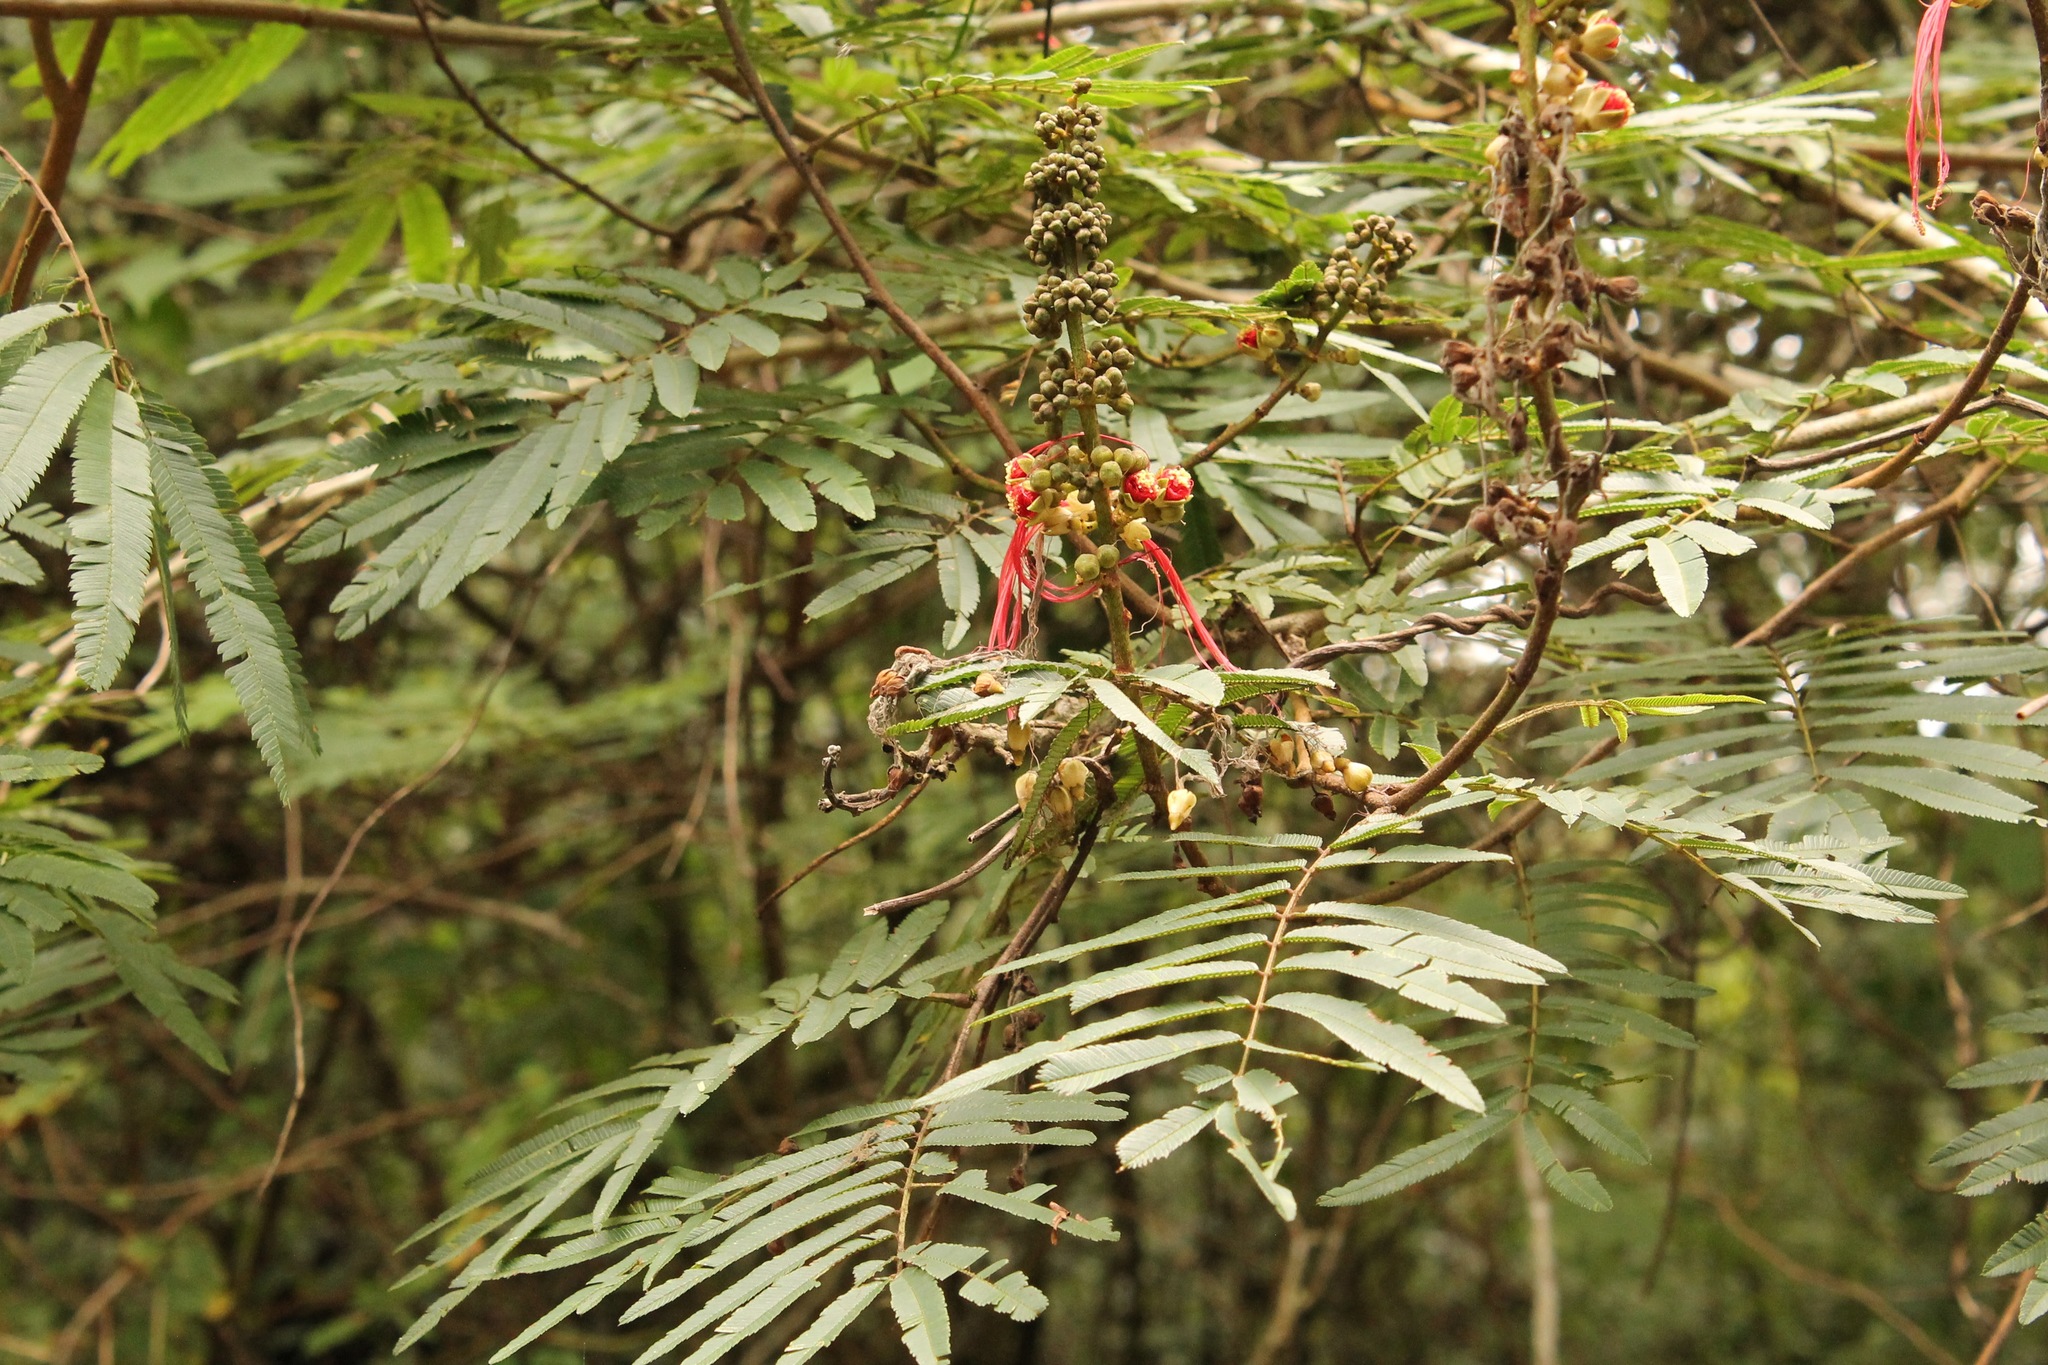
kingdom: Plantae
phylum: Tracheophyta
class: Magnoliopsida
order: Fabales
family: Fabaceae
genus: Calliandra
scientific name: Calliandra houstoniana
